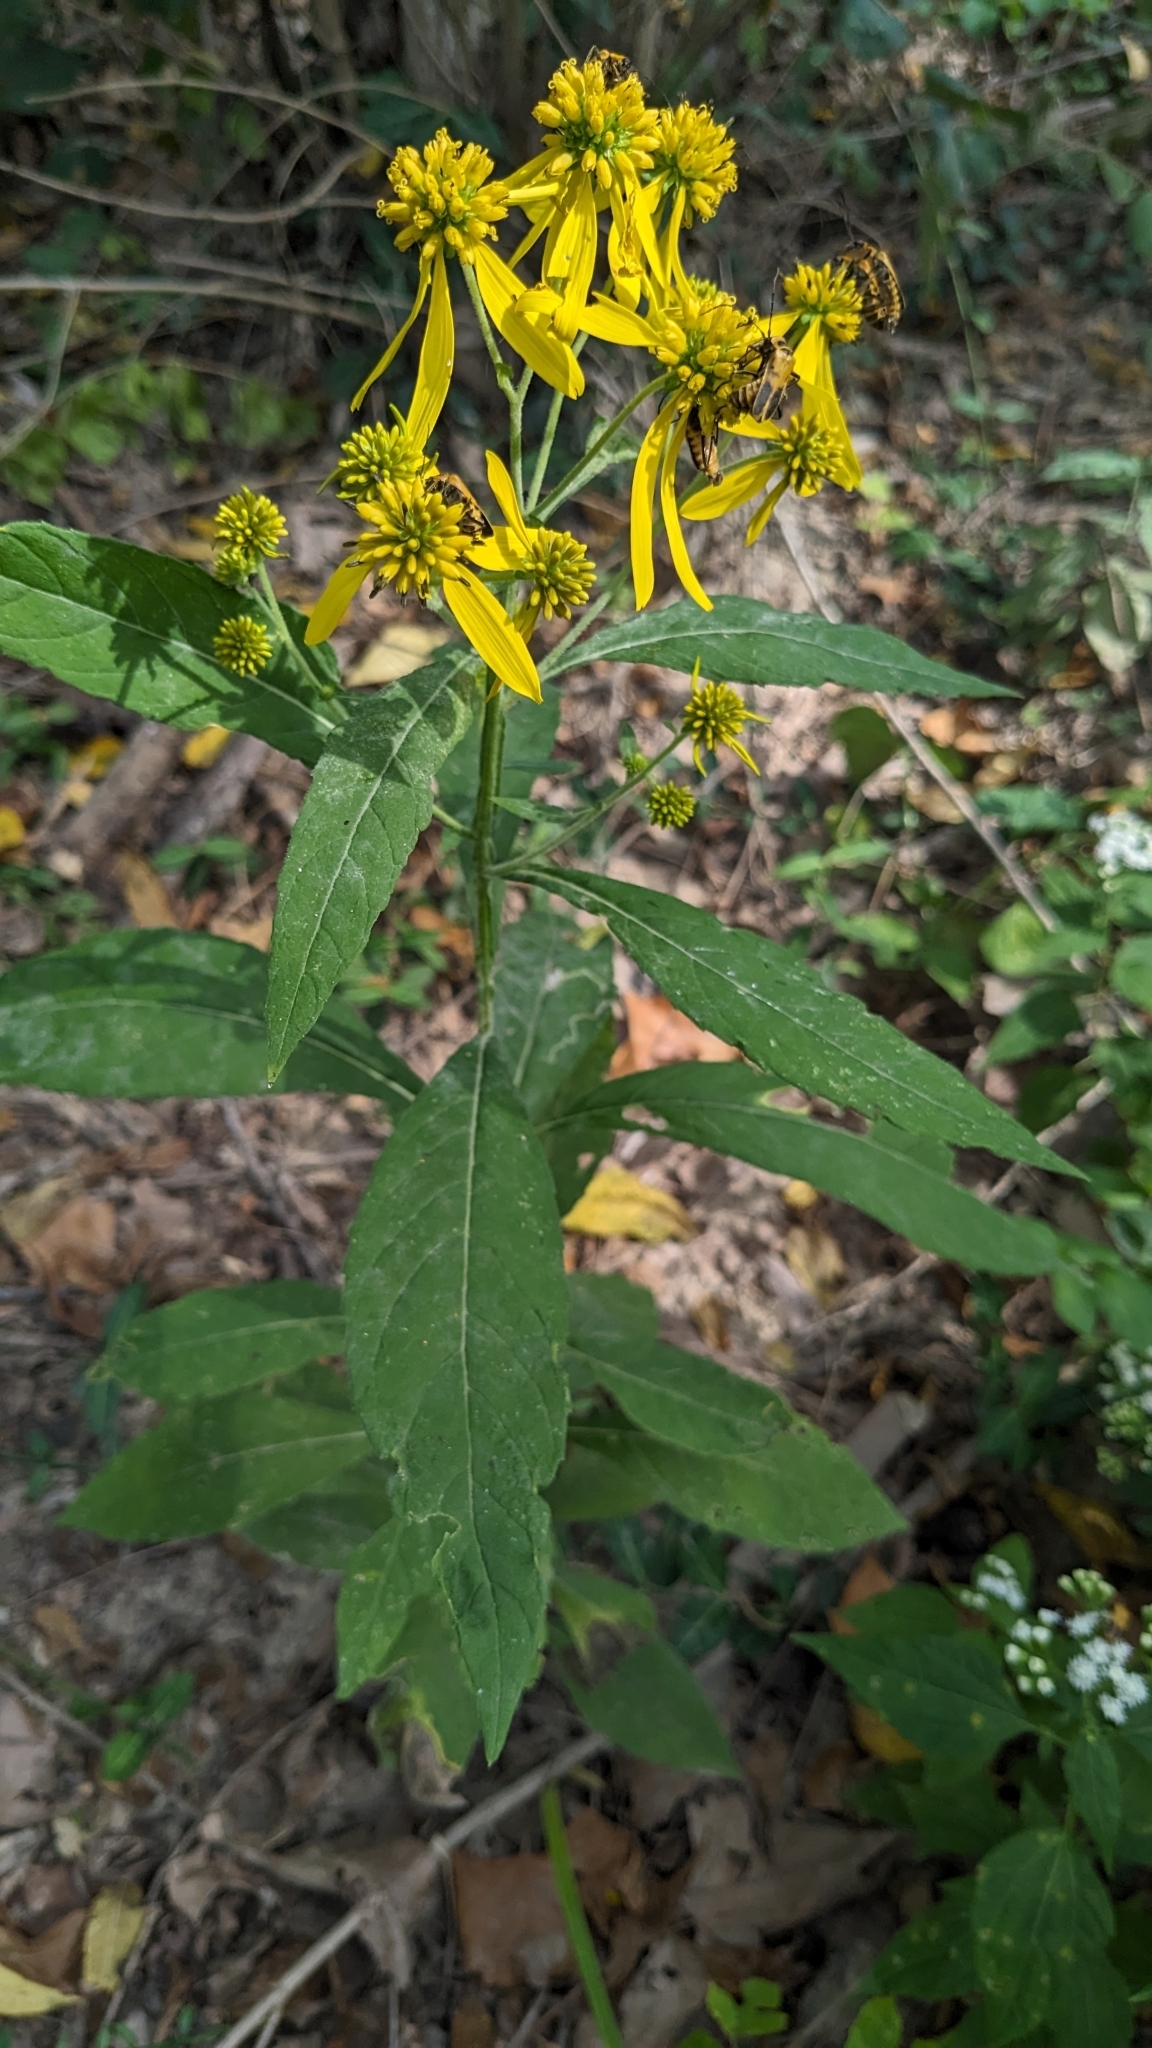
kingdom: Plantae
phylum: Tracheophyta
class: Magnoliopsida
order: Asterales
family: Asteraceae
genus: Verbesina
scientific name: Verbesina alternifolia
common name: Wingstem
